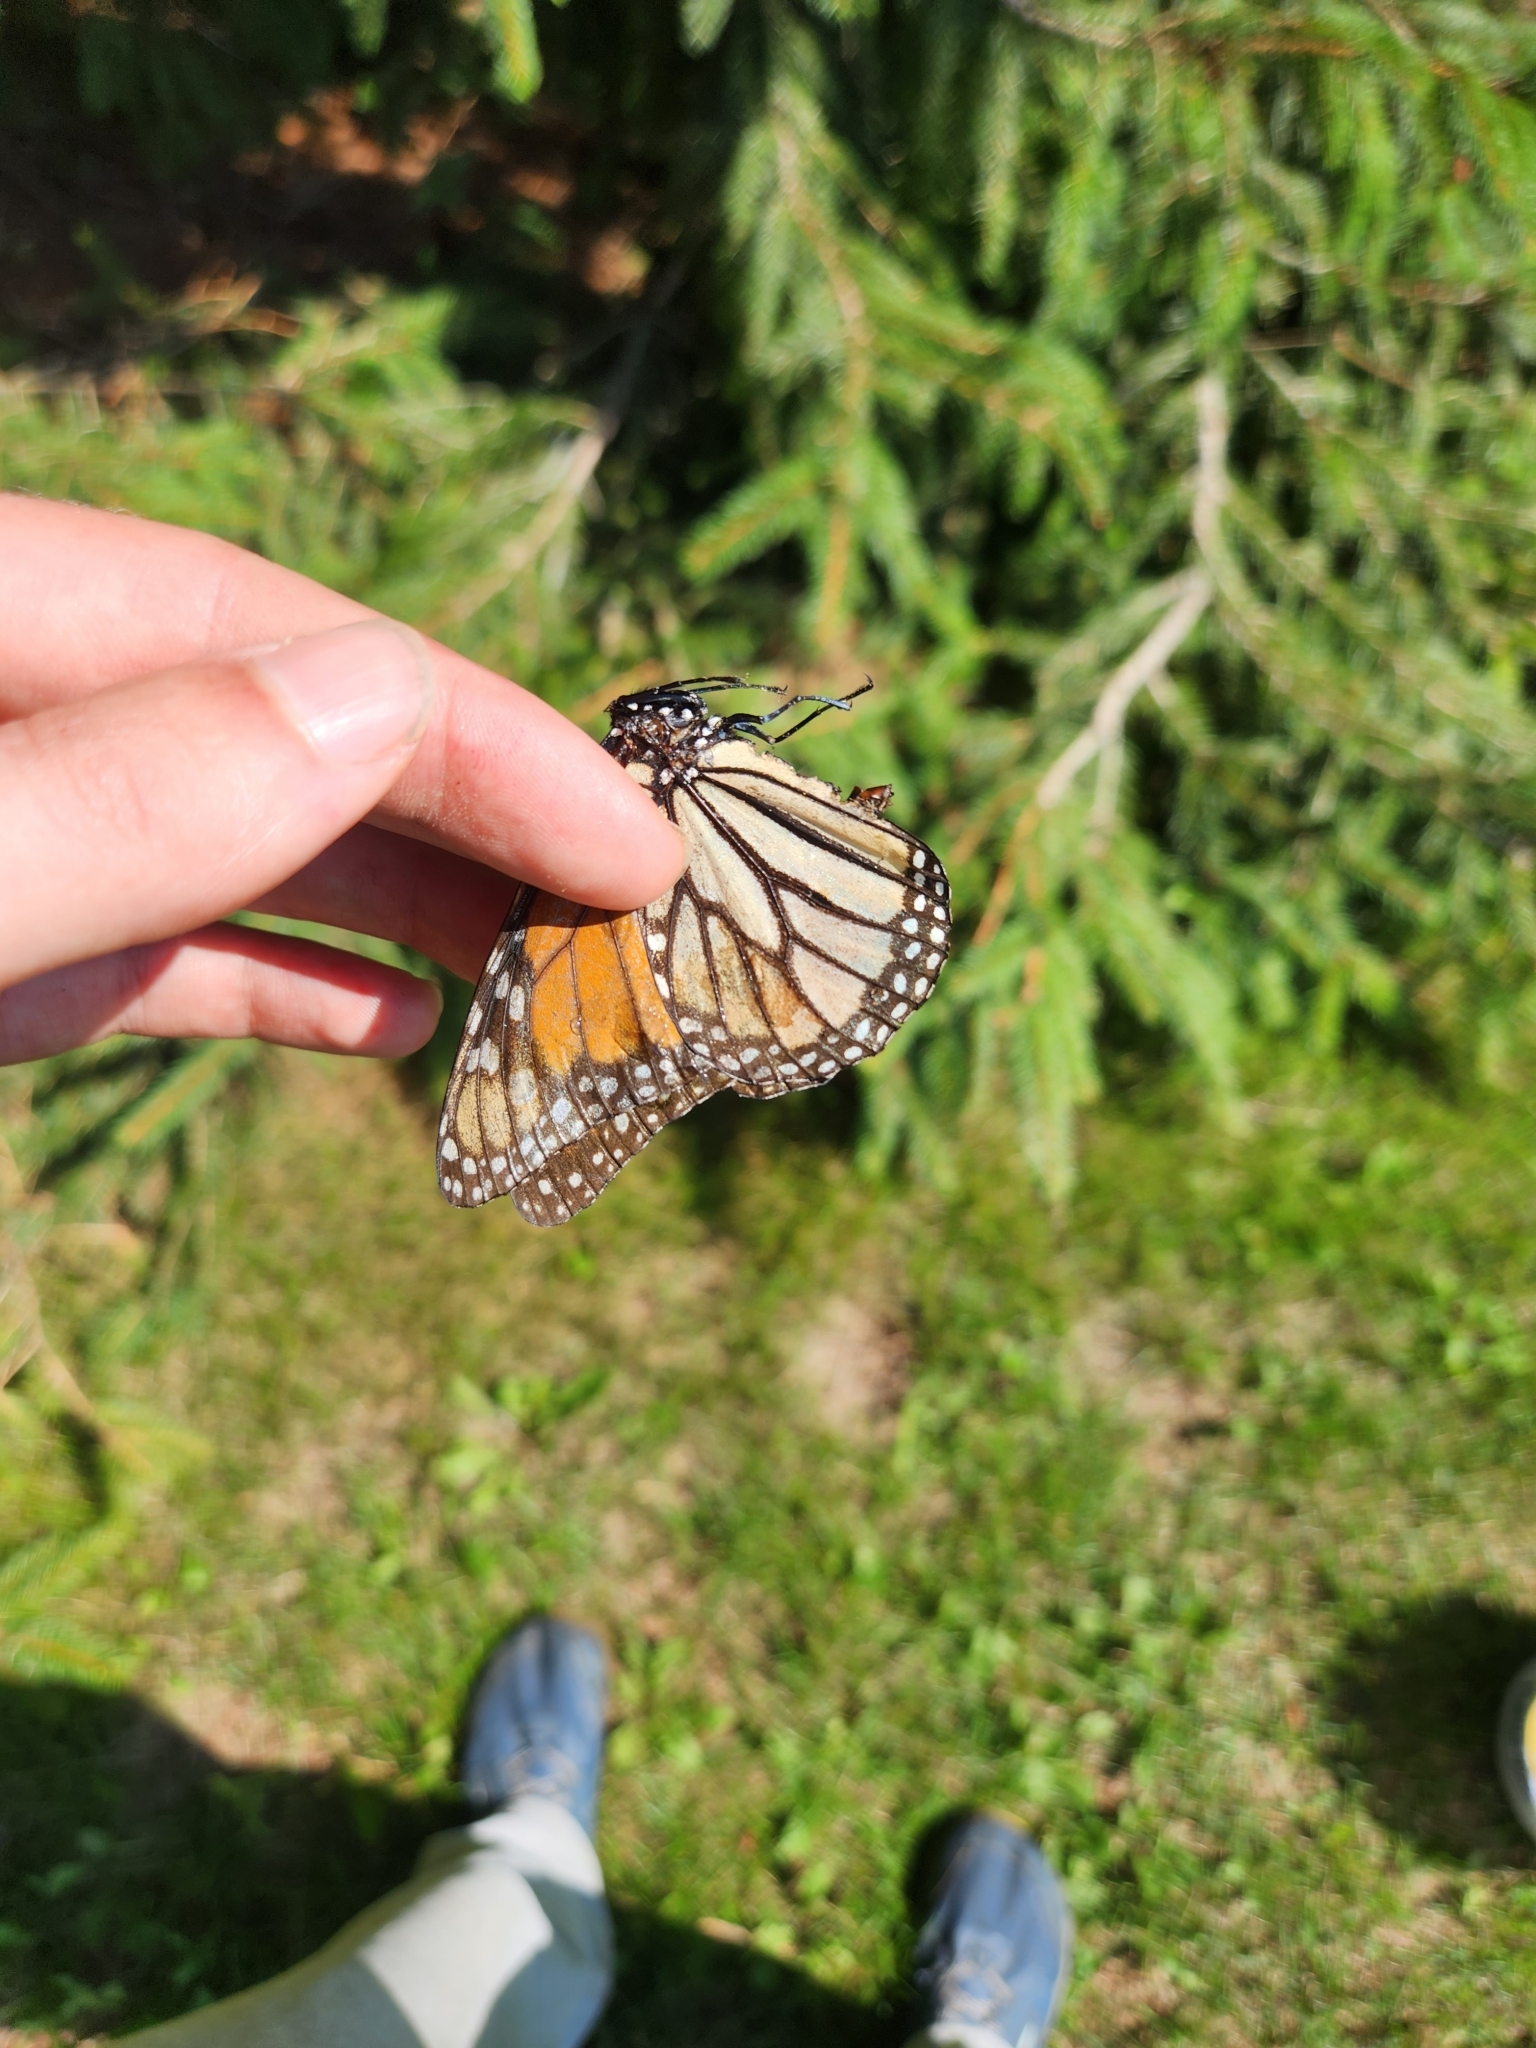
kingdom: Animalia
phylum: Arthropoda
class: Insecta
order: Lepidoptera
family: Nymphalidae
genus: Danaus
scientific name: Danaus plexippus
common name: Monarch
